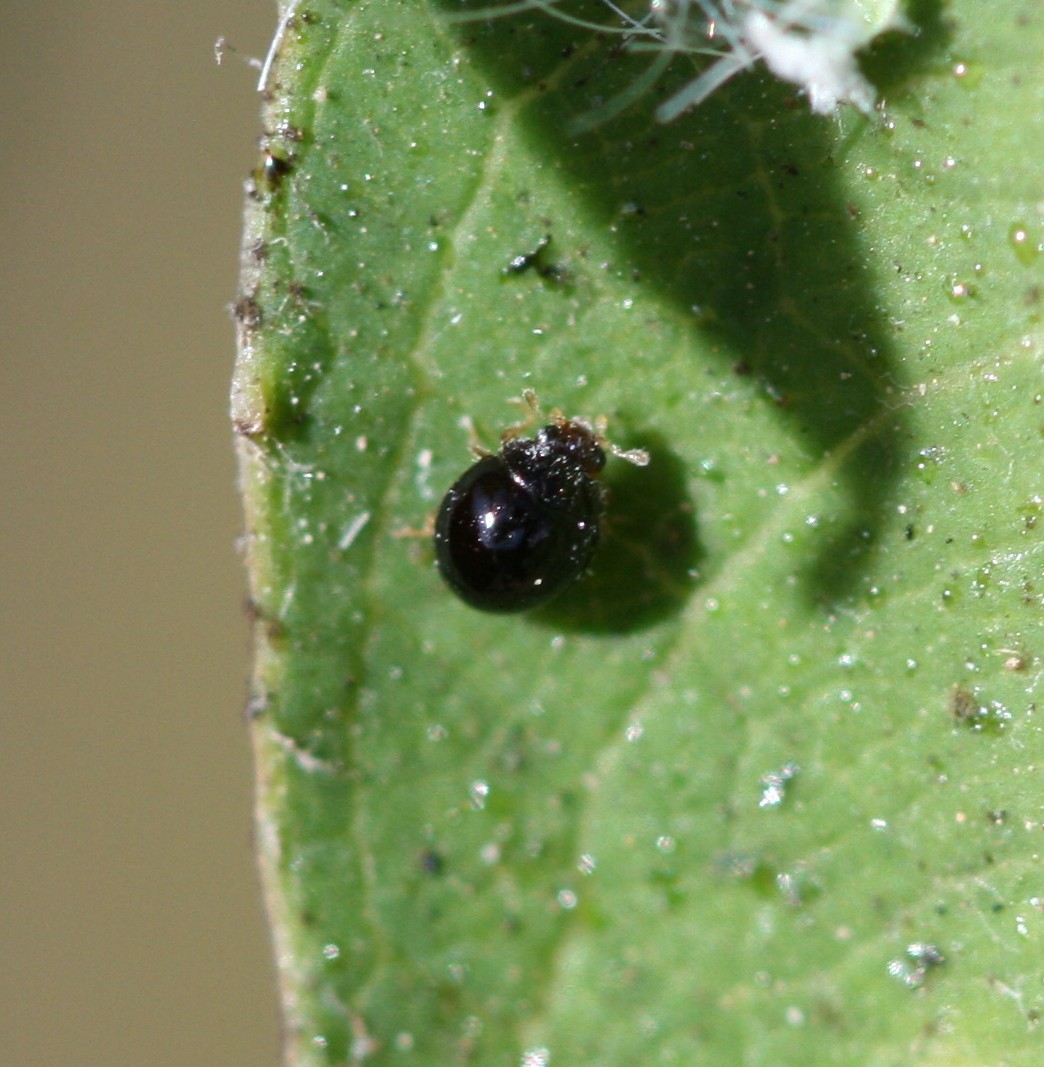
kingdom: Animalia
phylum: Arthropoda
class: Insecta
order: Coleoptera
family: Coccinellidae
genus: Delphastus
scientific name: Delphastus catalinae
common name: Ladybird beetle
